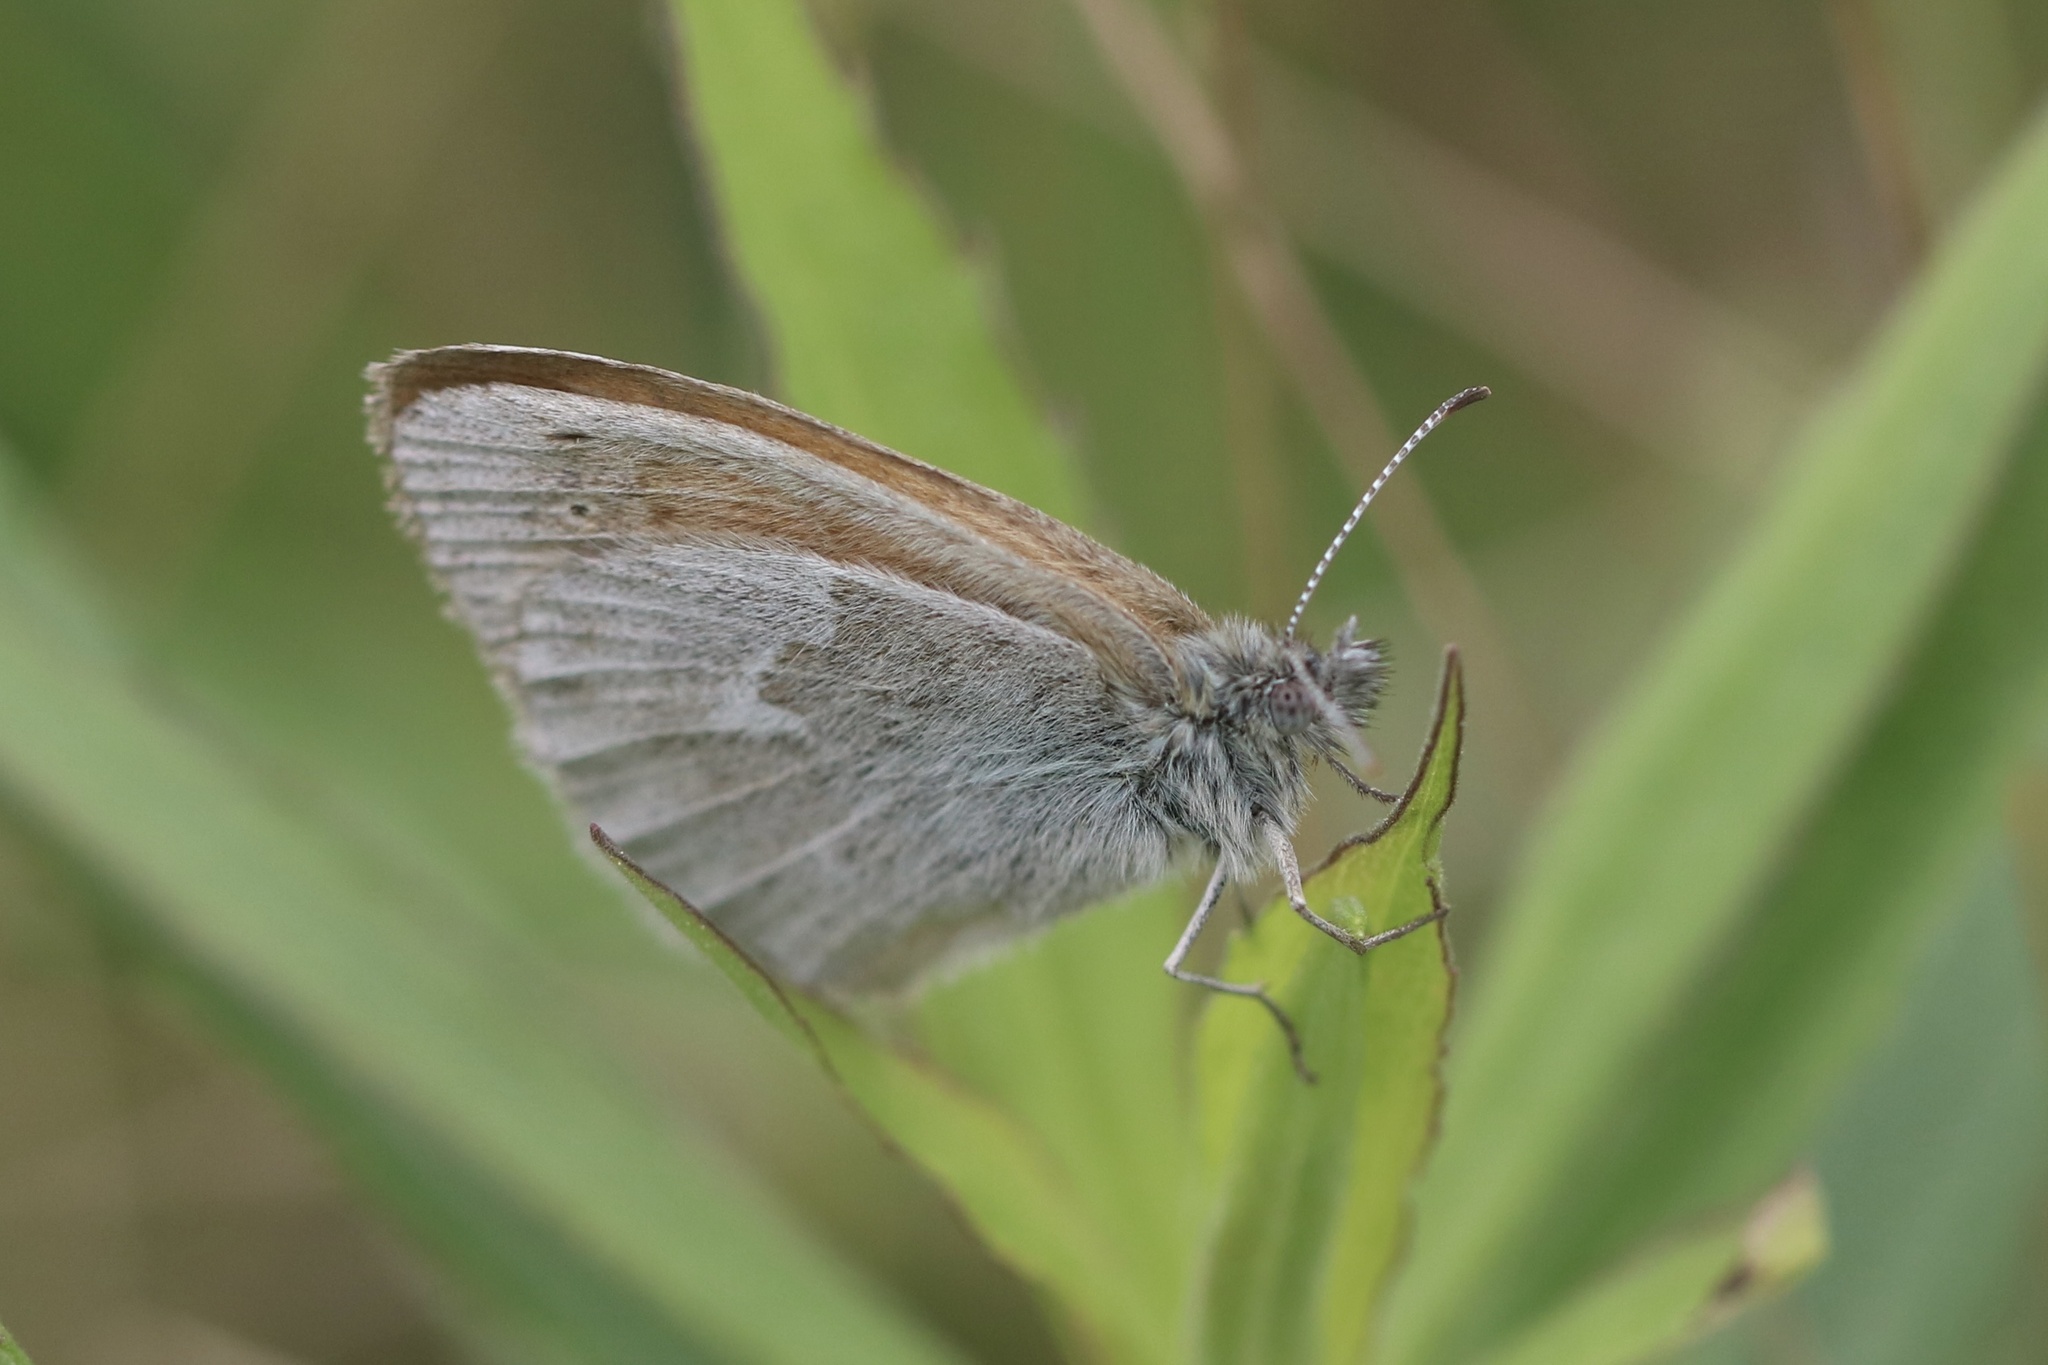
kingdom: Animalia
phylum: Arthropoda
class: Insecta
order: Lepidoptera
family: Nymphalidae
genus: Coenonympha
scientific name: Coenonympha california
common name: Common ringlet
